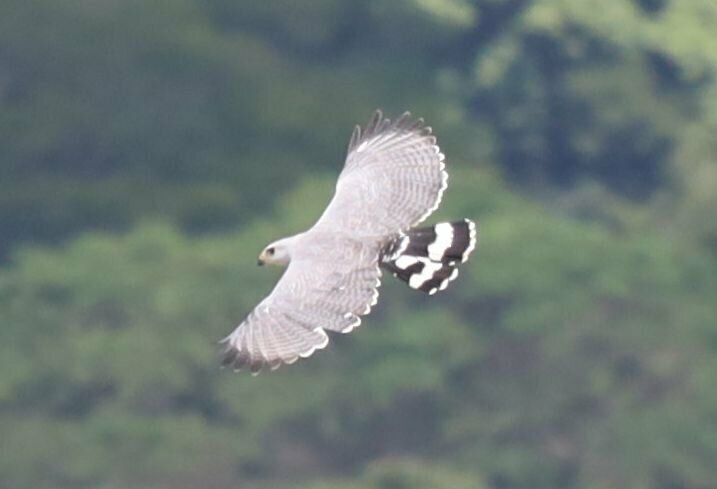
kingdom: Animalia
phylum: Chordata
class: Aves
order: Accipitriformes
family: Accipitridae
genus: Buteo
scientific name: Buteo nitidus
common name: Grey-lined hawk
